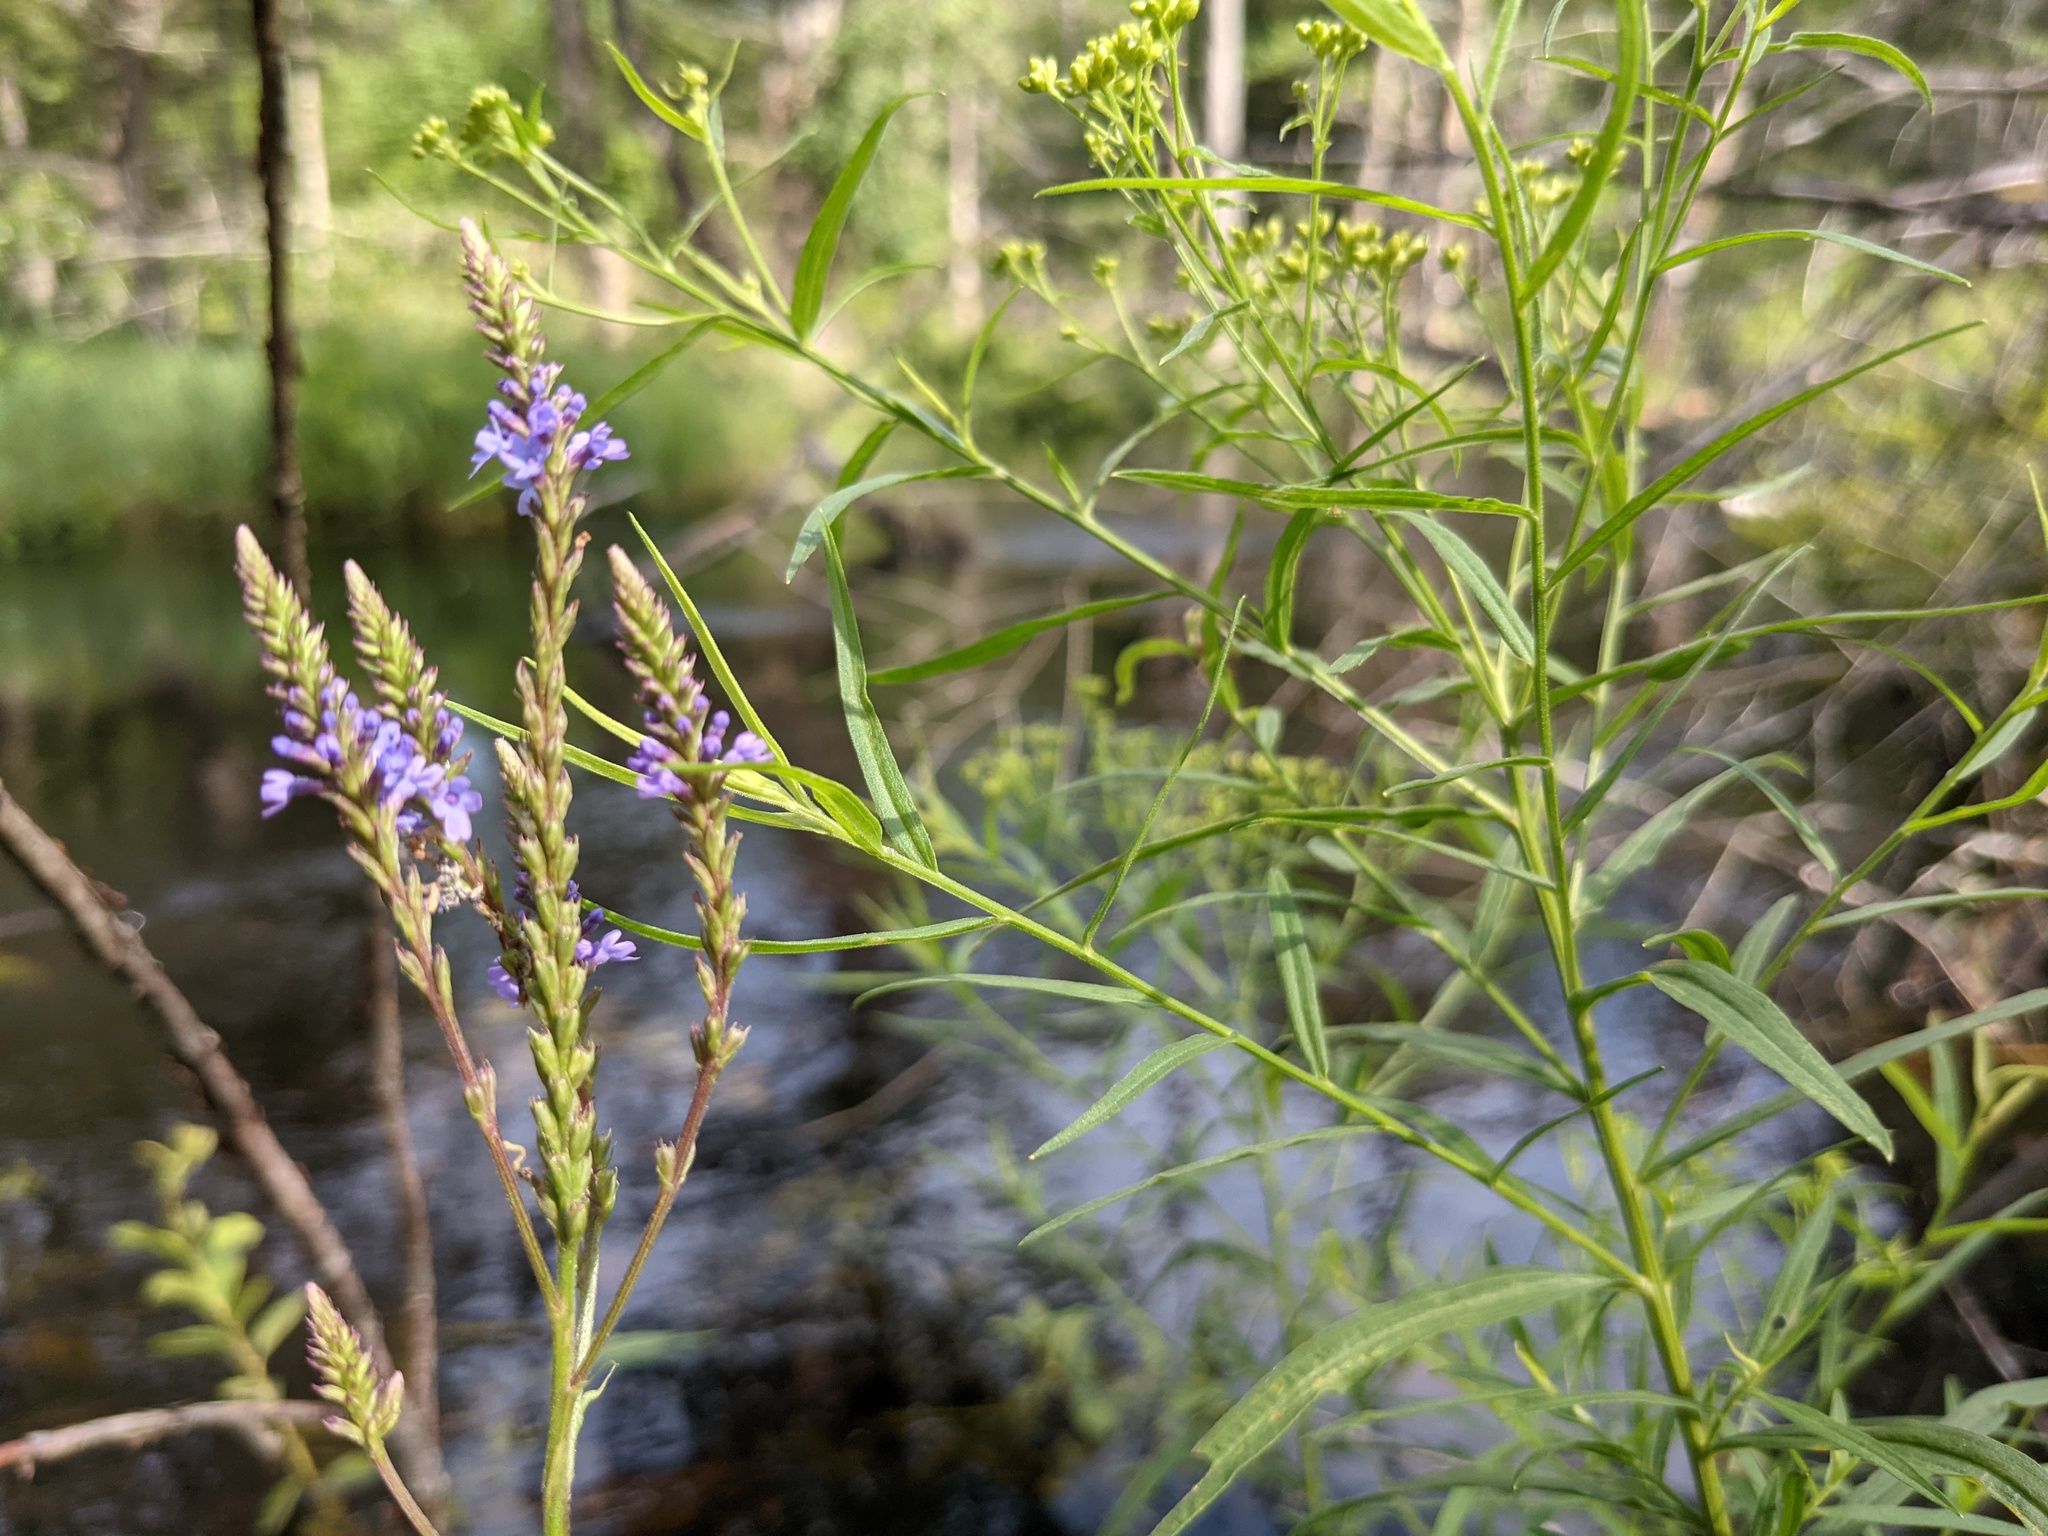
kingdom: Plantae
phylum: Tracheophyta
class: Magnoliopsida
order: Lamiales
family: Verbenaceae
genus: Verbena
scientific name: Verbena hastata
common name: American blue vervain
